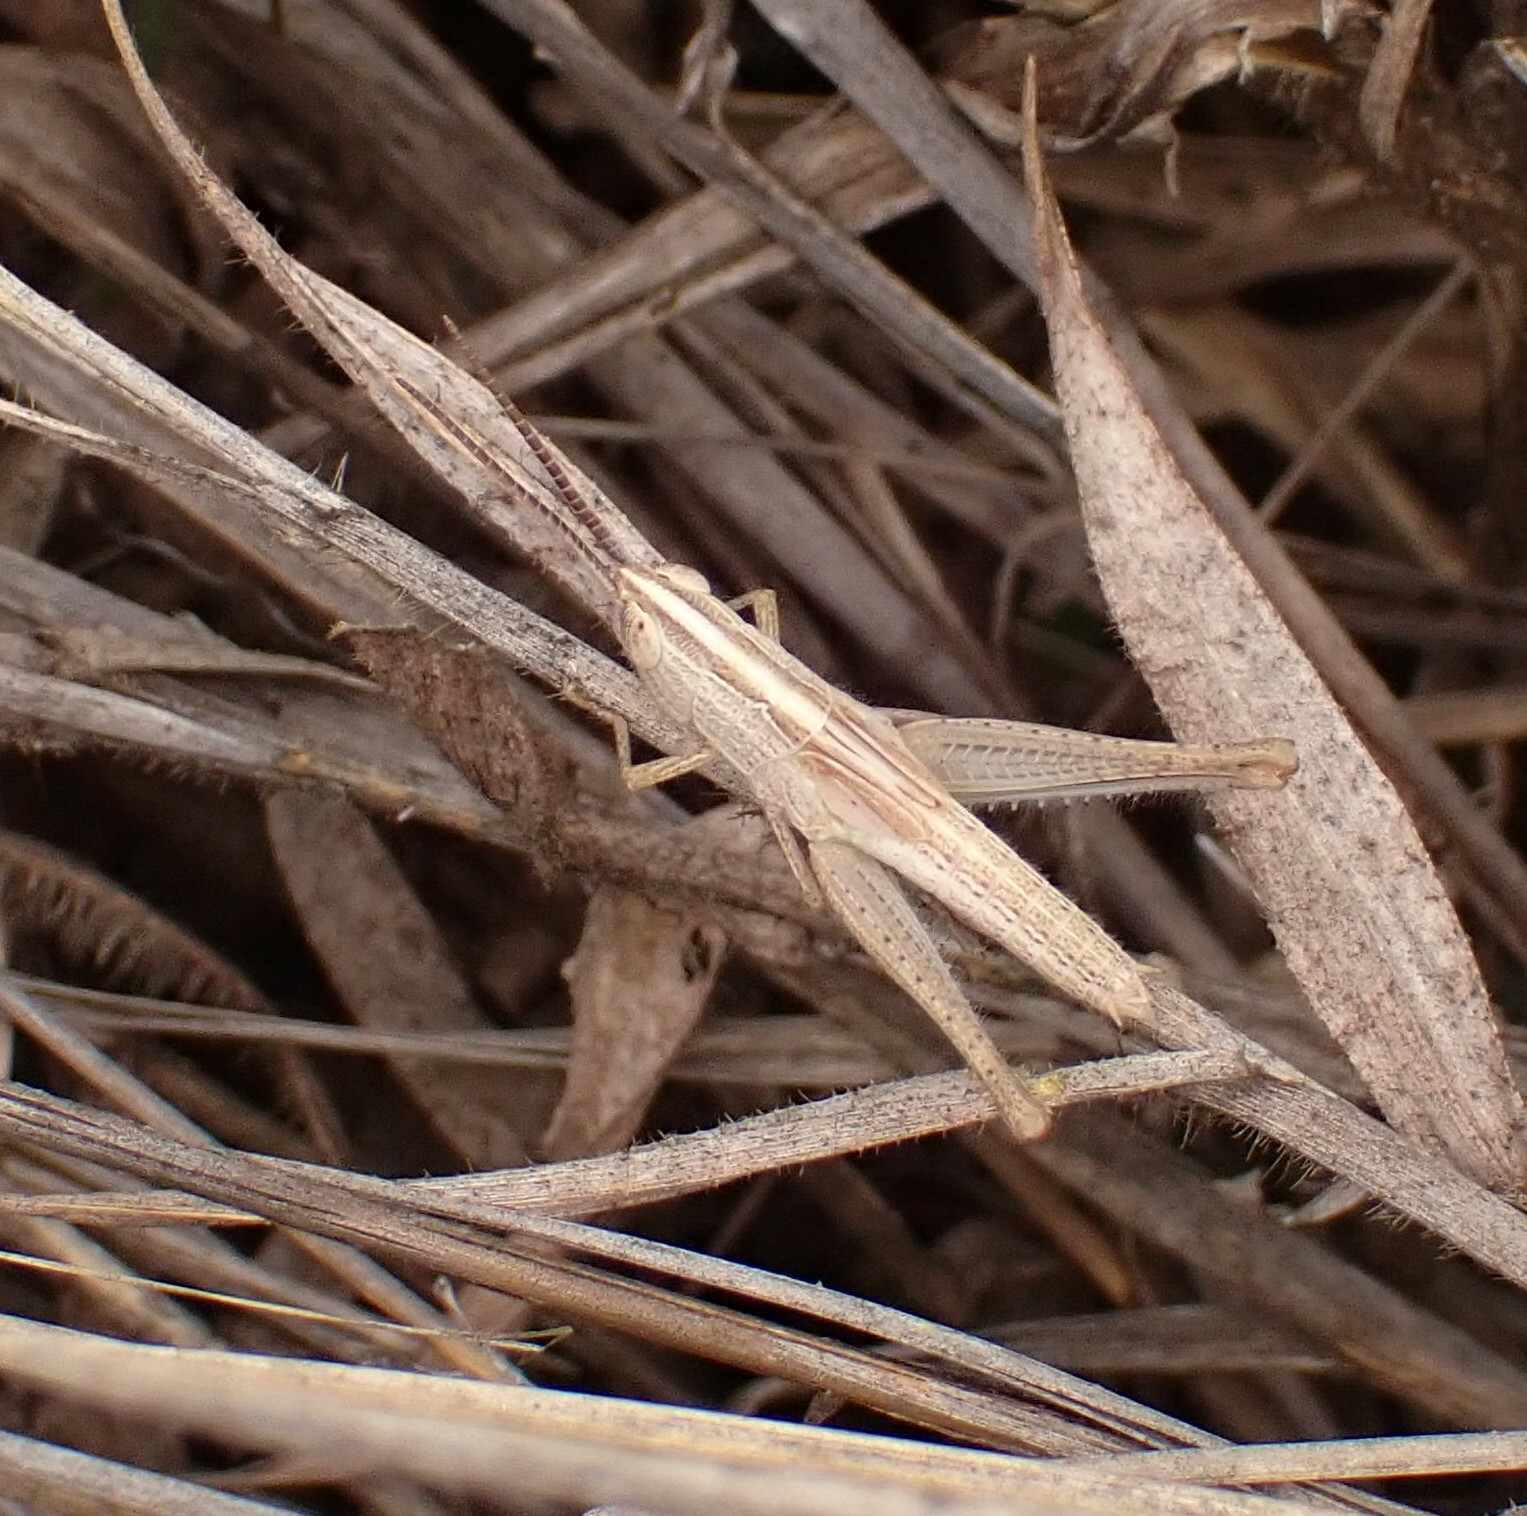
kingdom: Animalia
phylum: Arthropoda
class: Insecta
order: Orthoptera
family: Acrididae
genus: Staurorhectus
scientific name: Staurorhectus longicornis
